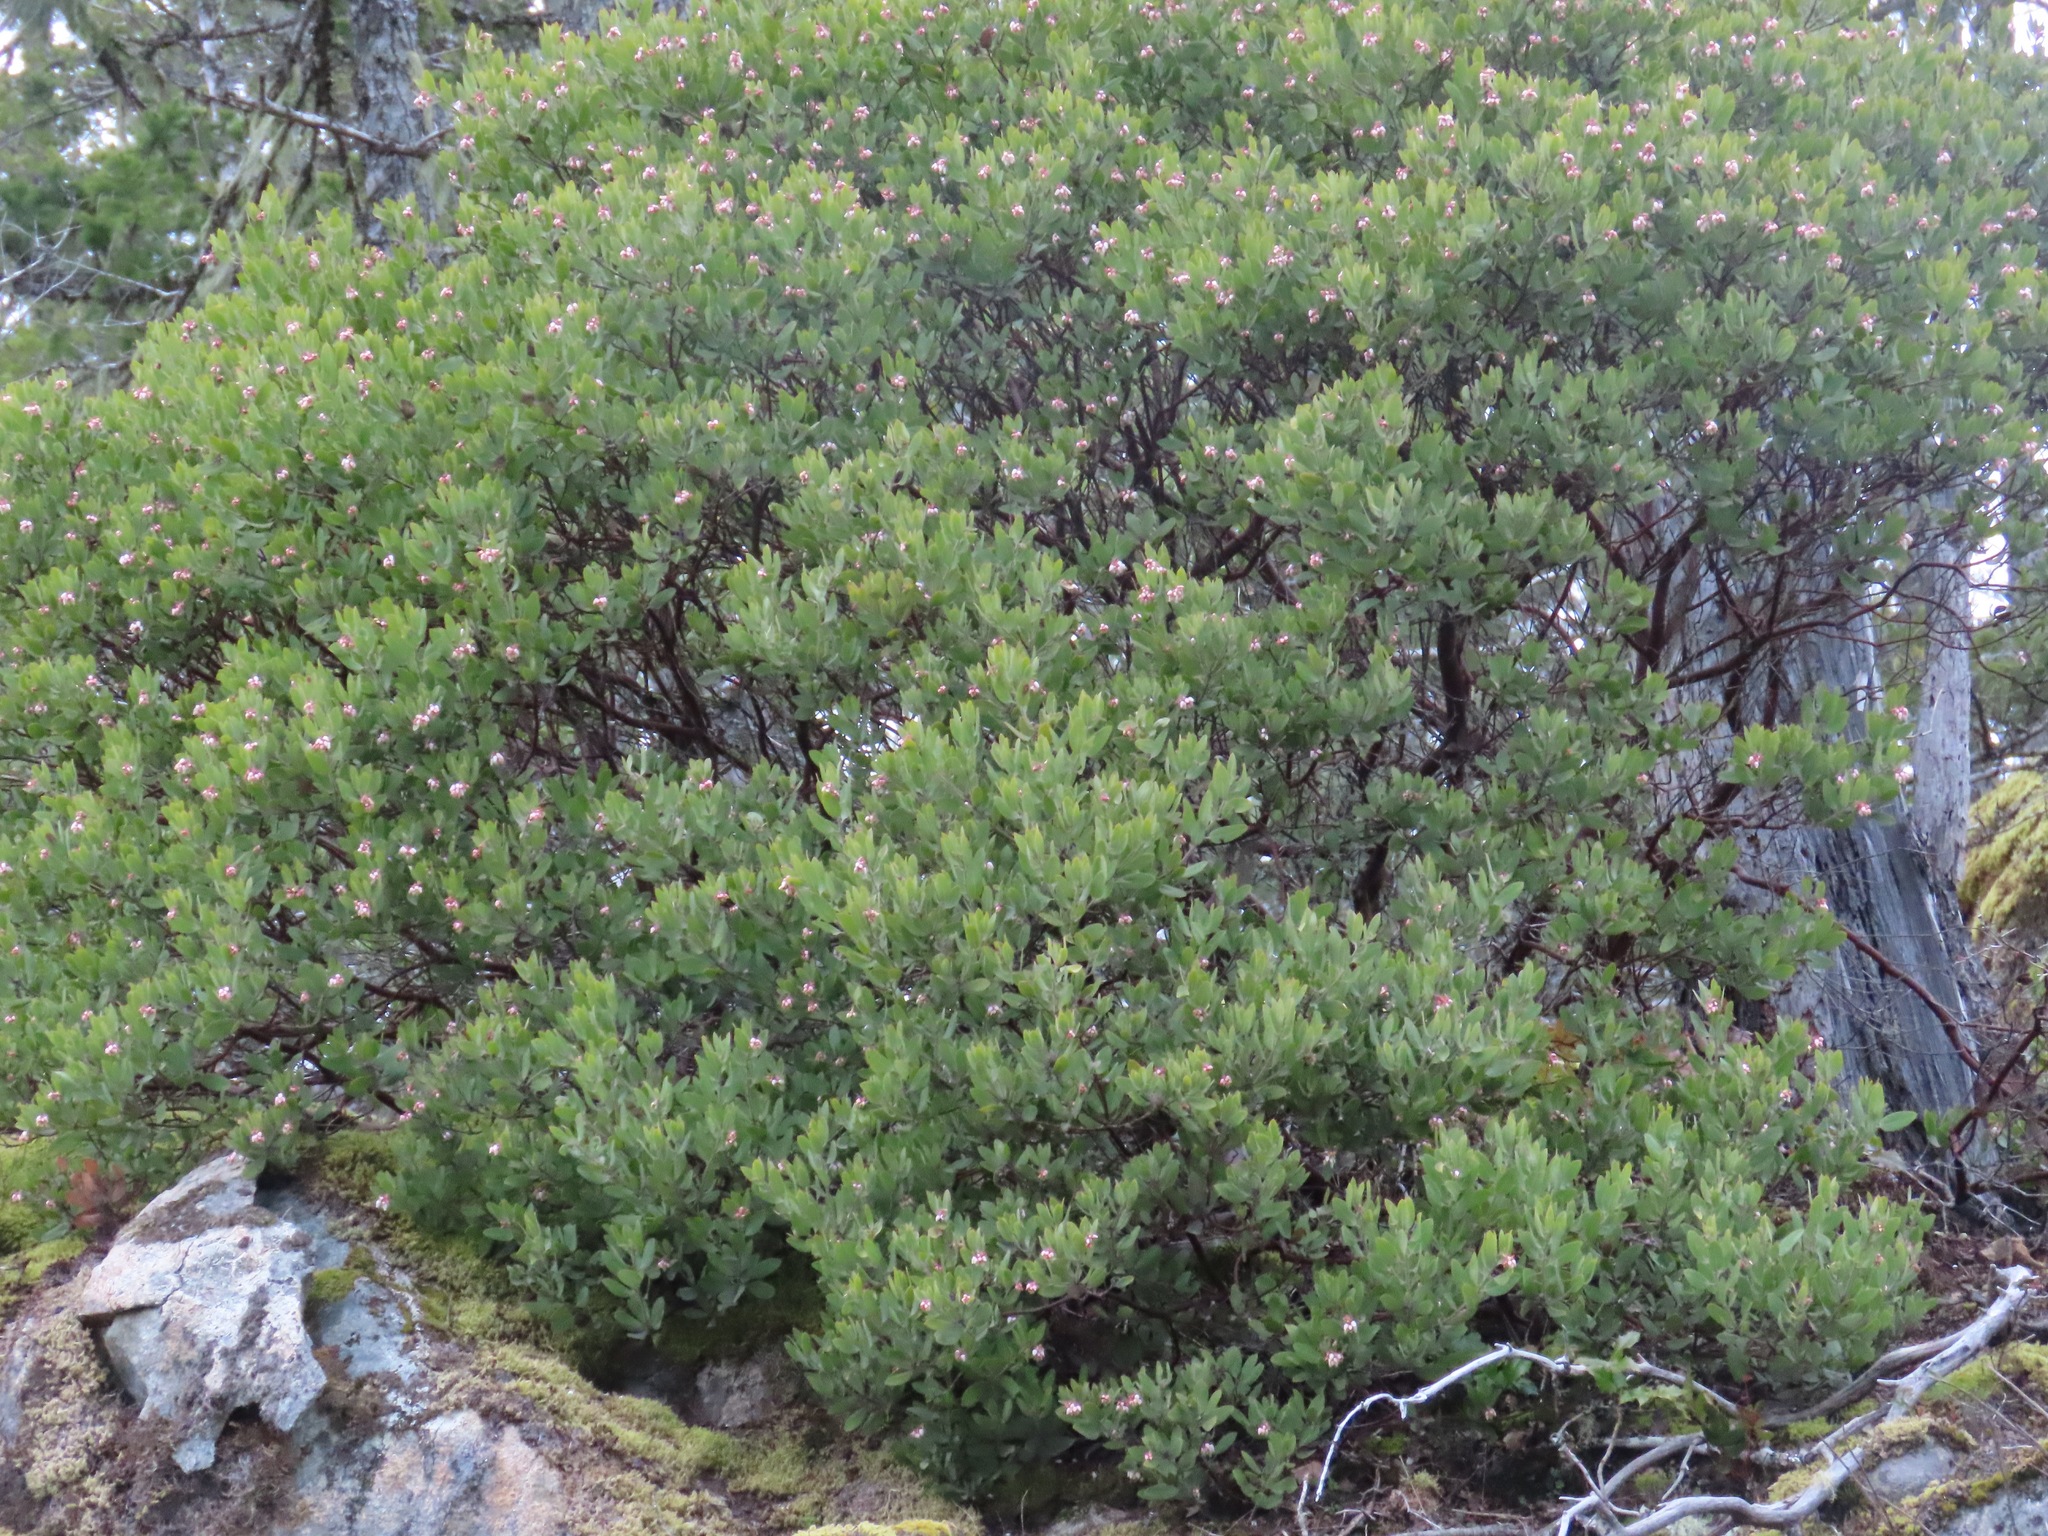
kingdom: Plantae
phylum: Tracheophyta
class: Magnoliopsida
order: Ericales
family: Ericaceae
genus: Arctostaphylos
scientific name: Arctostaphylos columbiana
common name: Bristly bearberry
